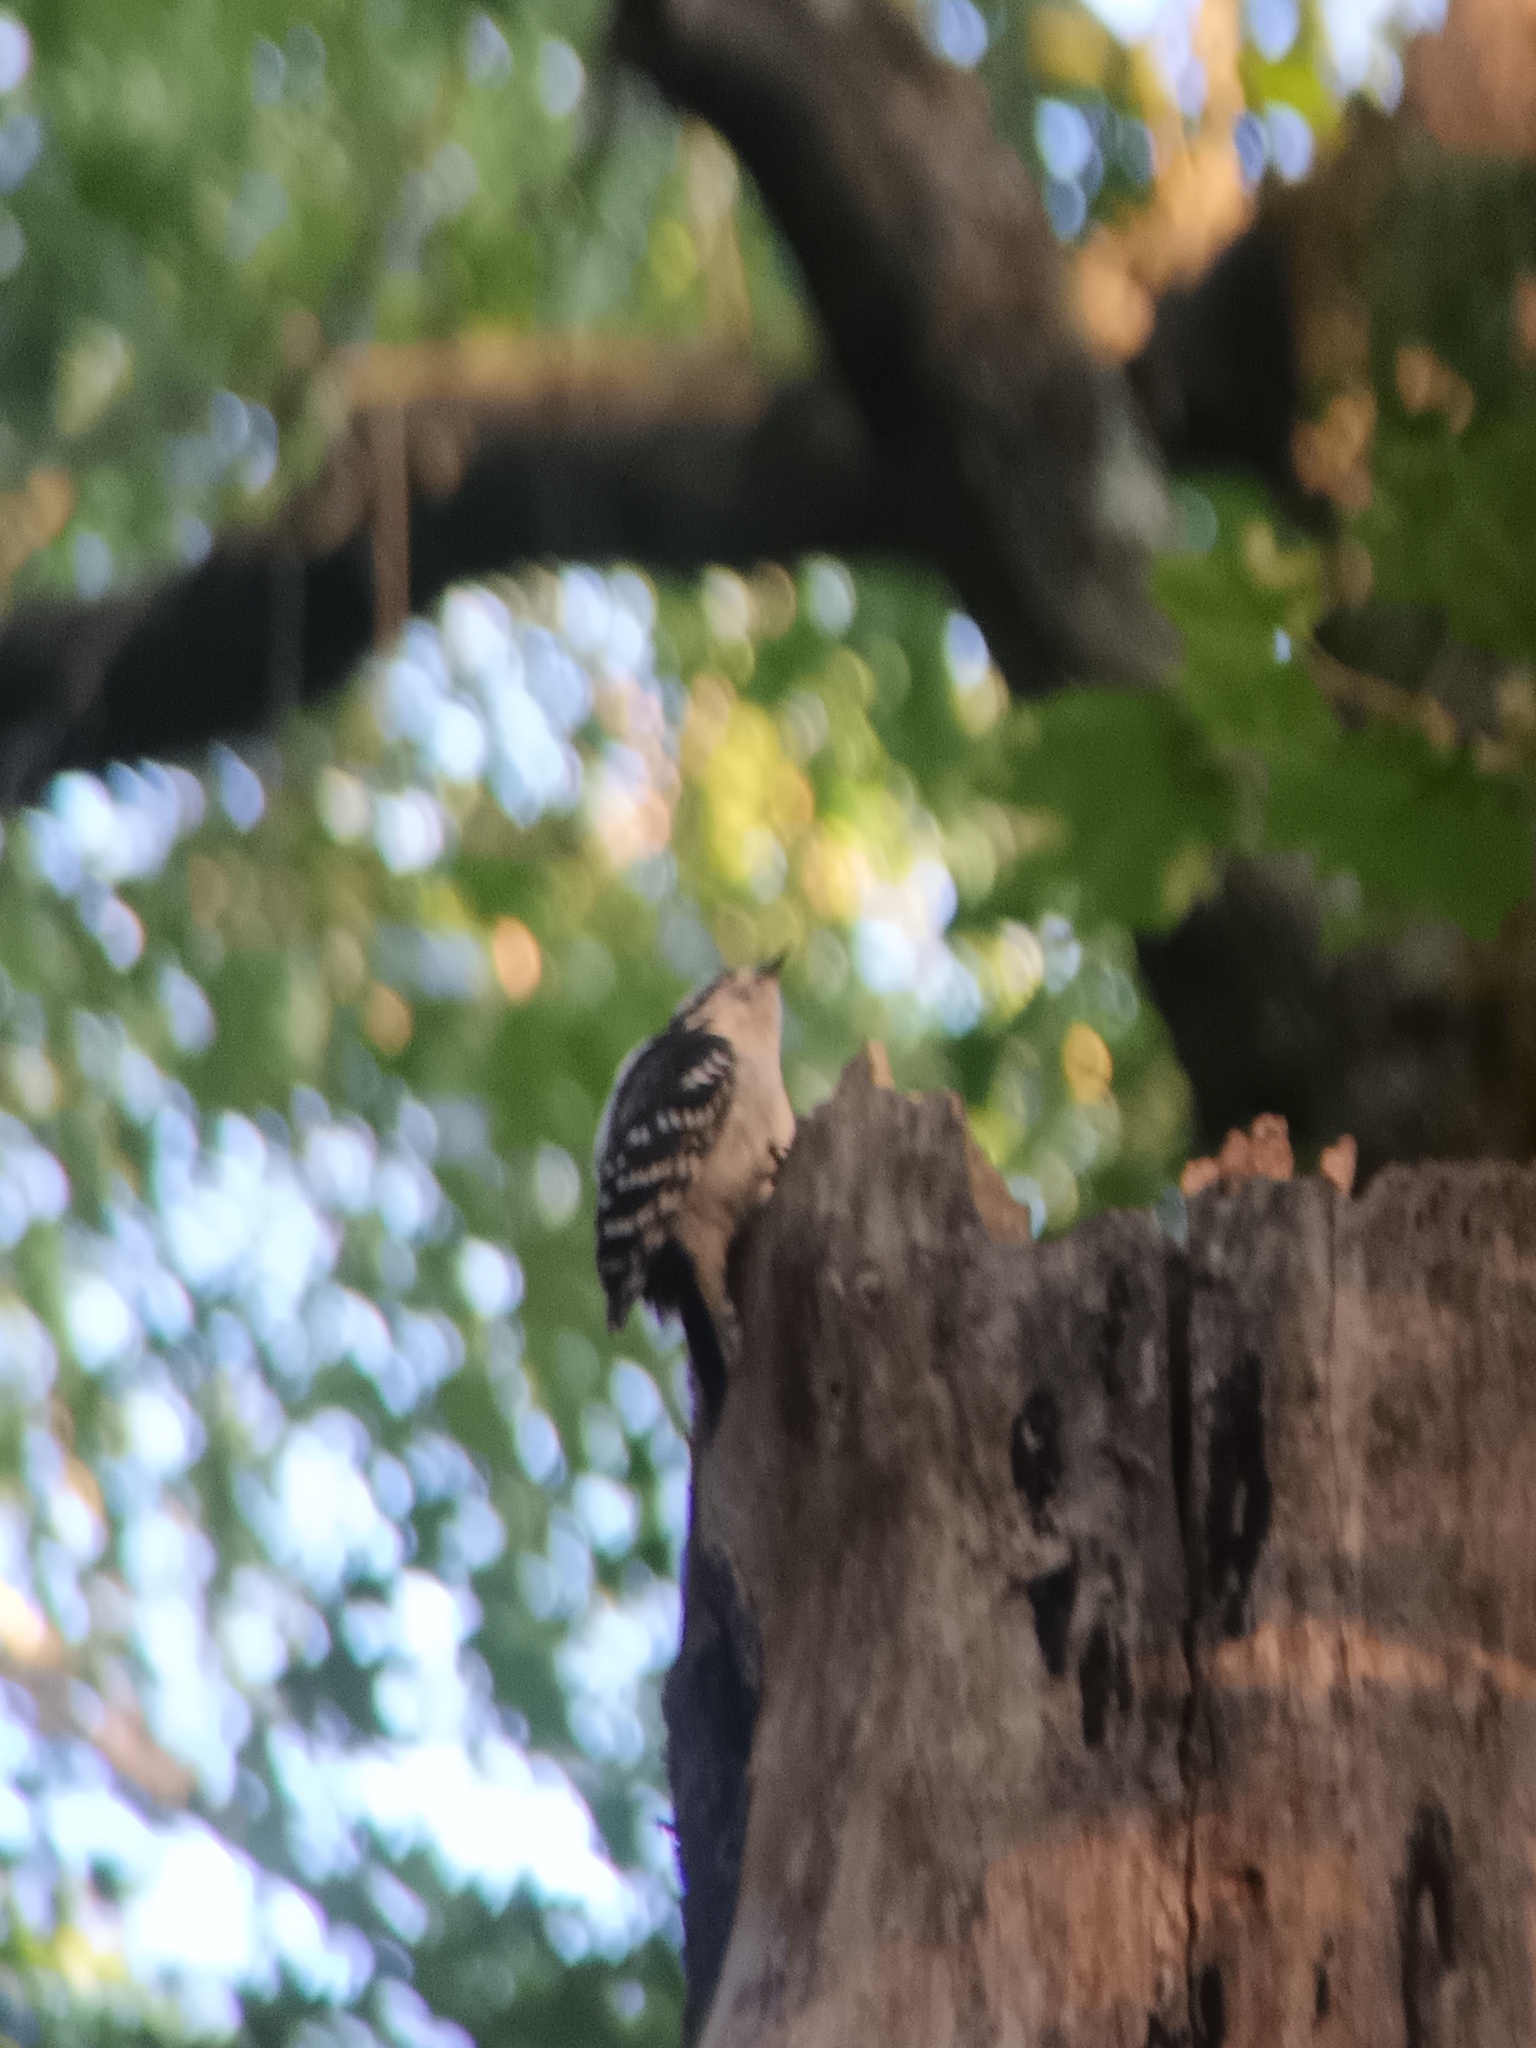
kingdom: Animalia
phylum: Chordata
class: Aves
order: Piciformes
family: Picidae
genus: Dryobates
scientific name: Dryobates pubescens
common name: Downy woodpecker
